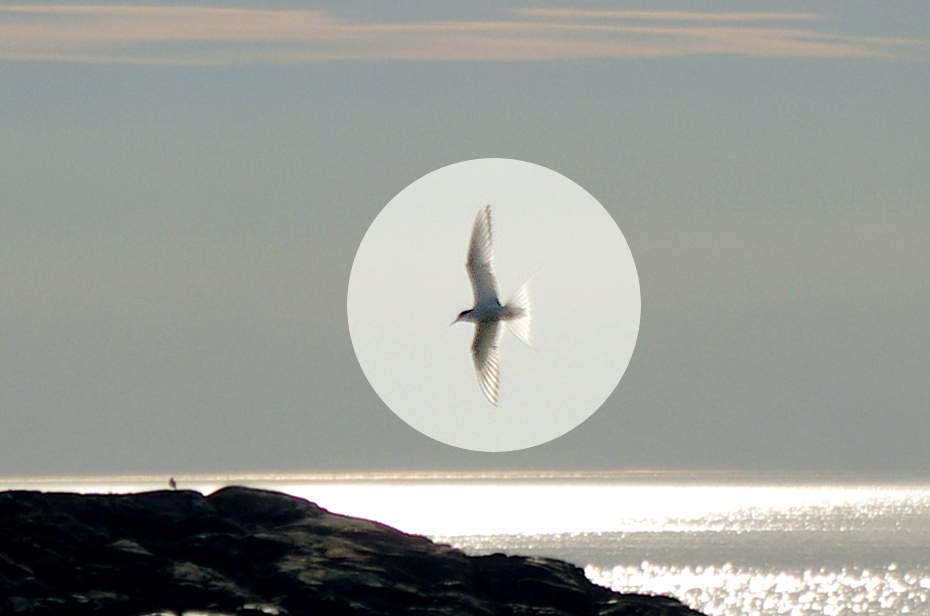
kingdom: Animalia
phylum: Chordata
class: Aves
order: Charadriiformes
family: Laridae
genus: Sterna
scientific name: Sterna paradisaea
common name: Arctic tern
